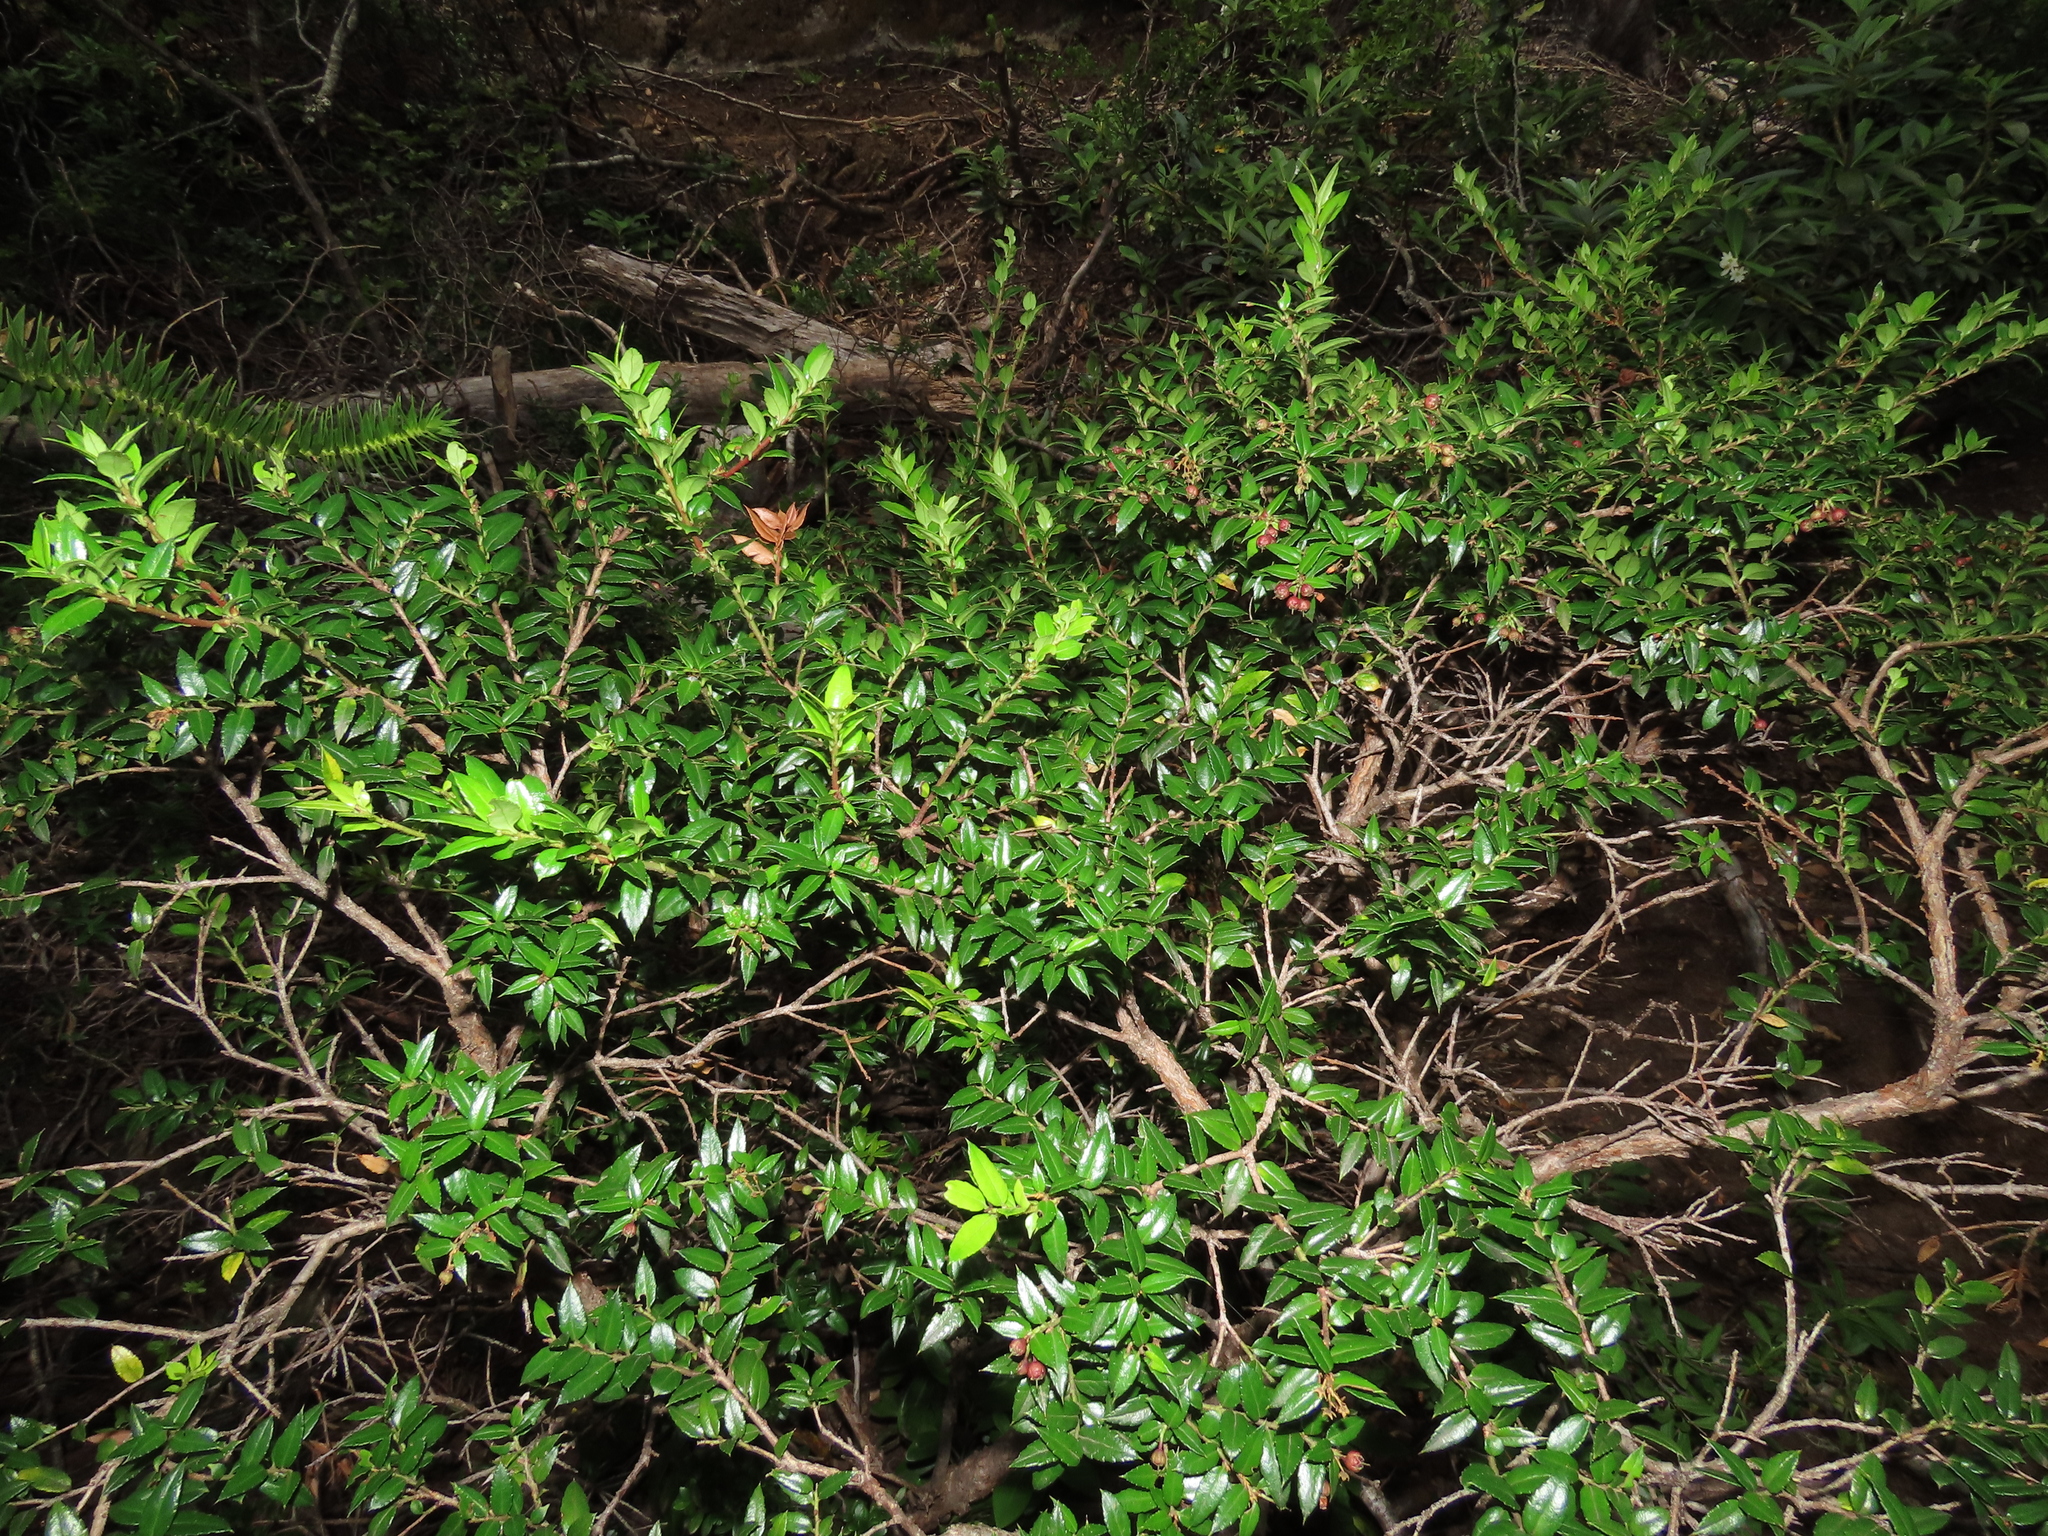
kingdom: Plantae
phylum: Tracheophyta
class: Magnoliopsida
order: Ericales
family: Ericaceae
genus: Gaultheria
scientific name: Gaultheria phillyreifolia
